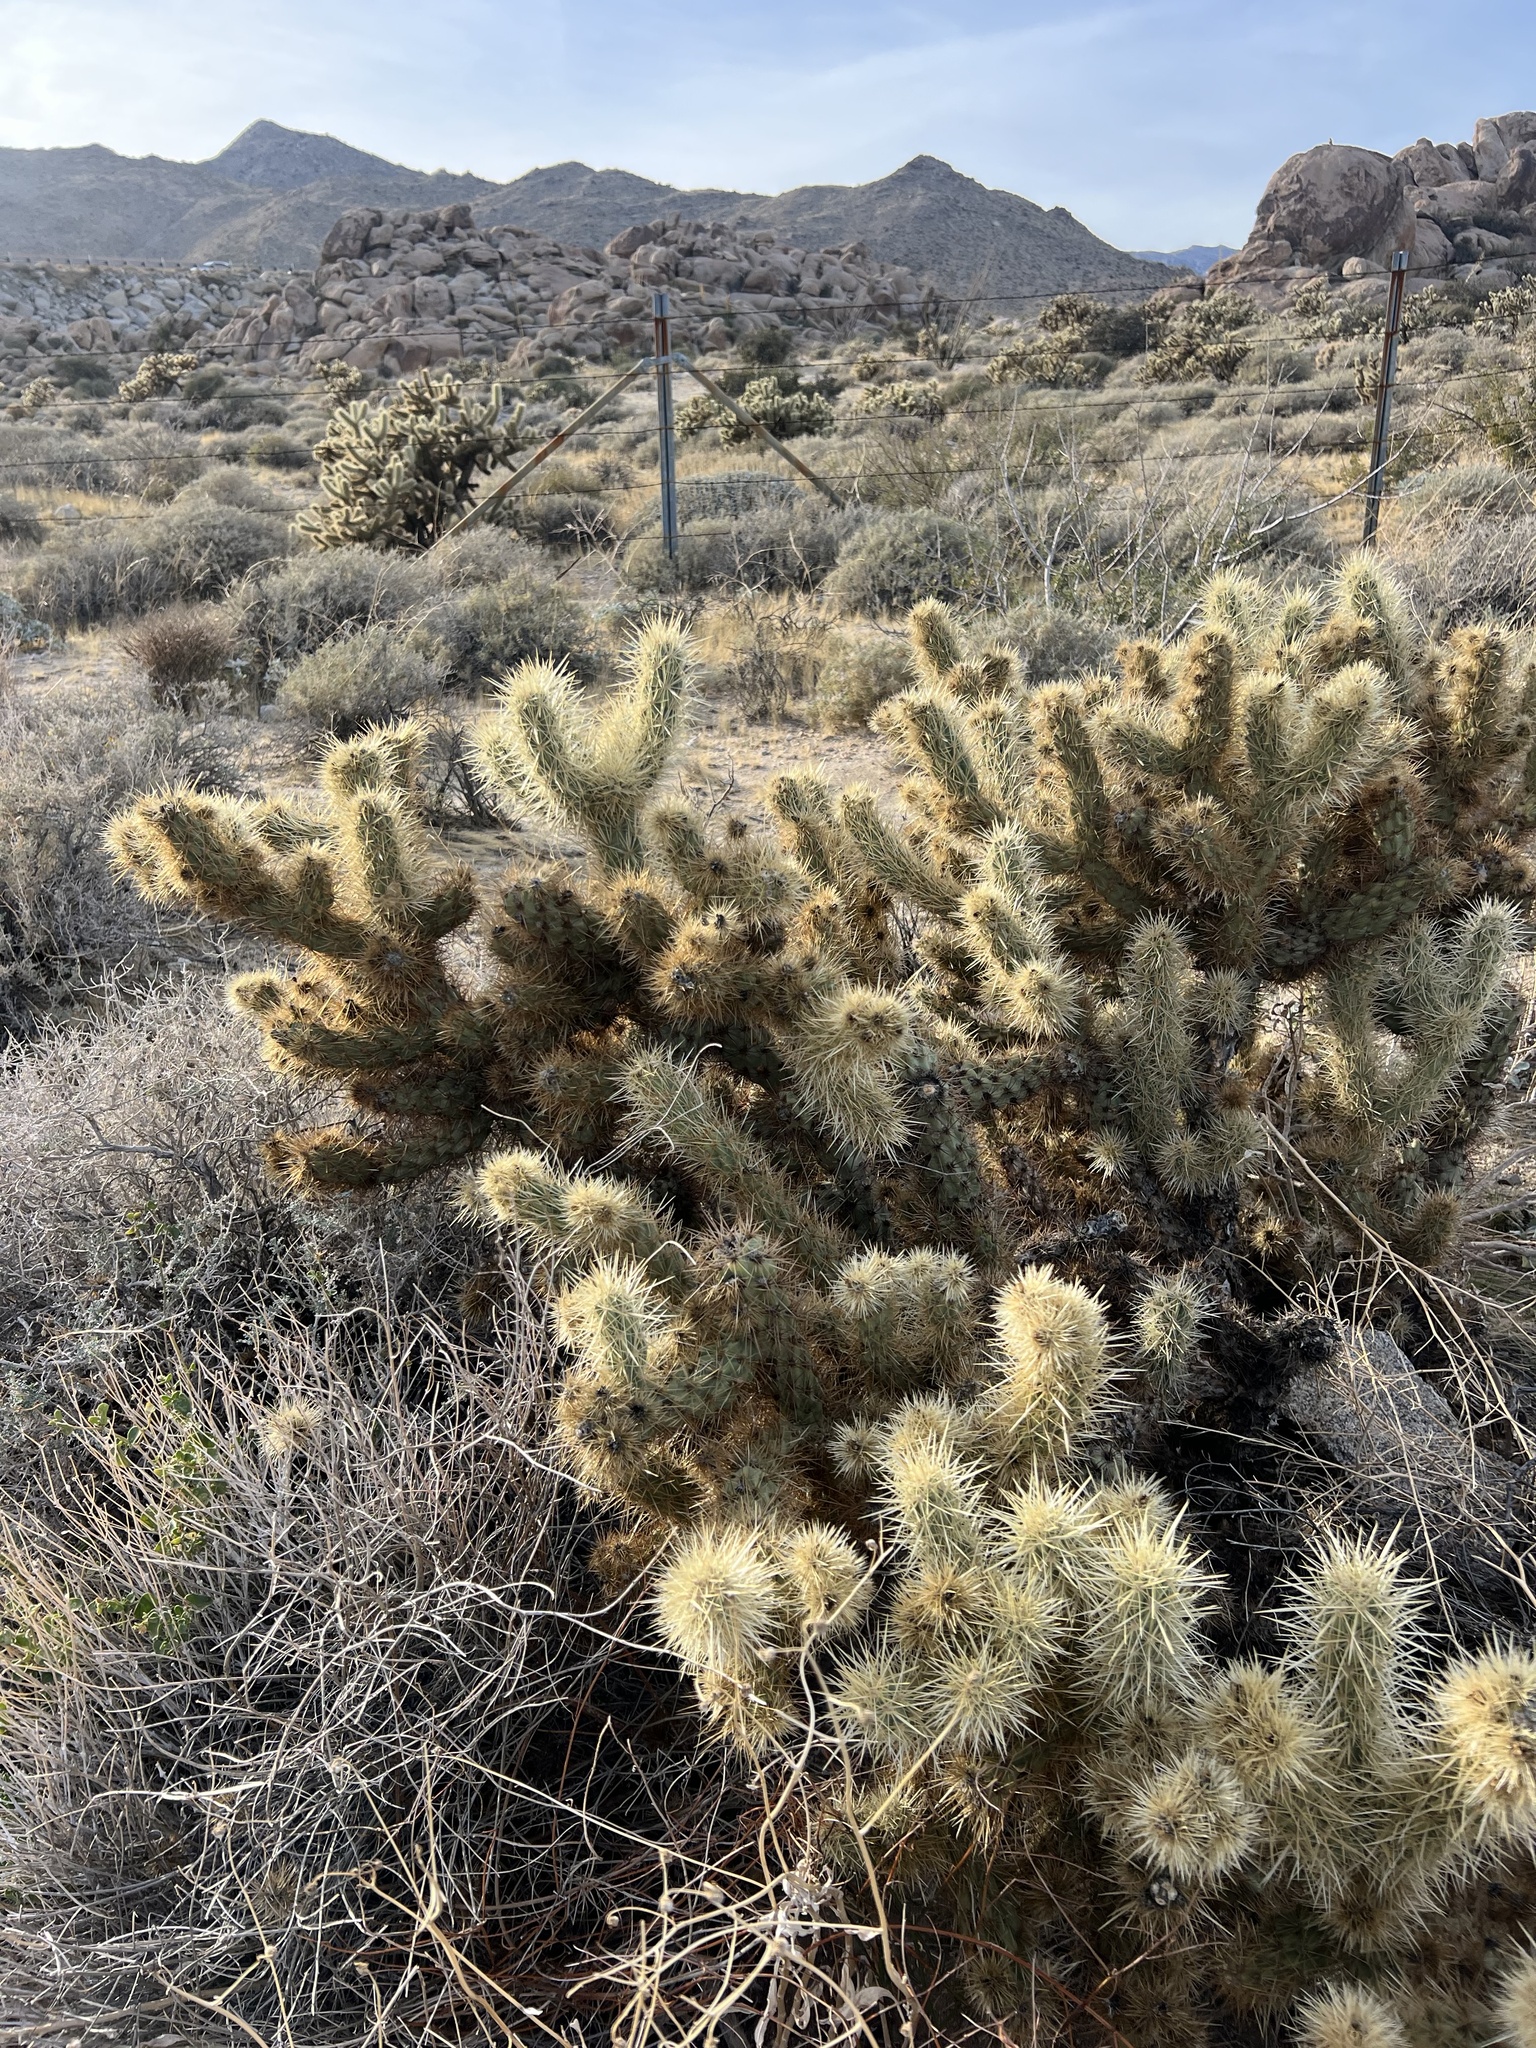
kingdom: Plantae
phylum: Tracheophyta
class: Magnoliopsida
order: Caryophyllales
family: Cactaceae
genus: Cylindropuntia
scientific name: Cylindropuntia ganderi
